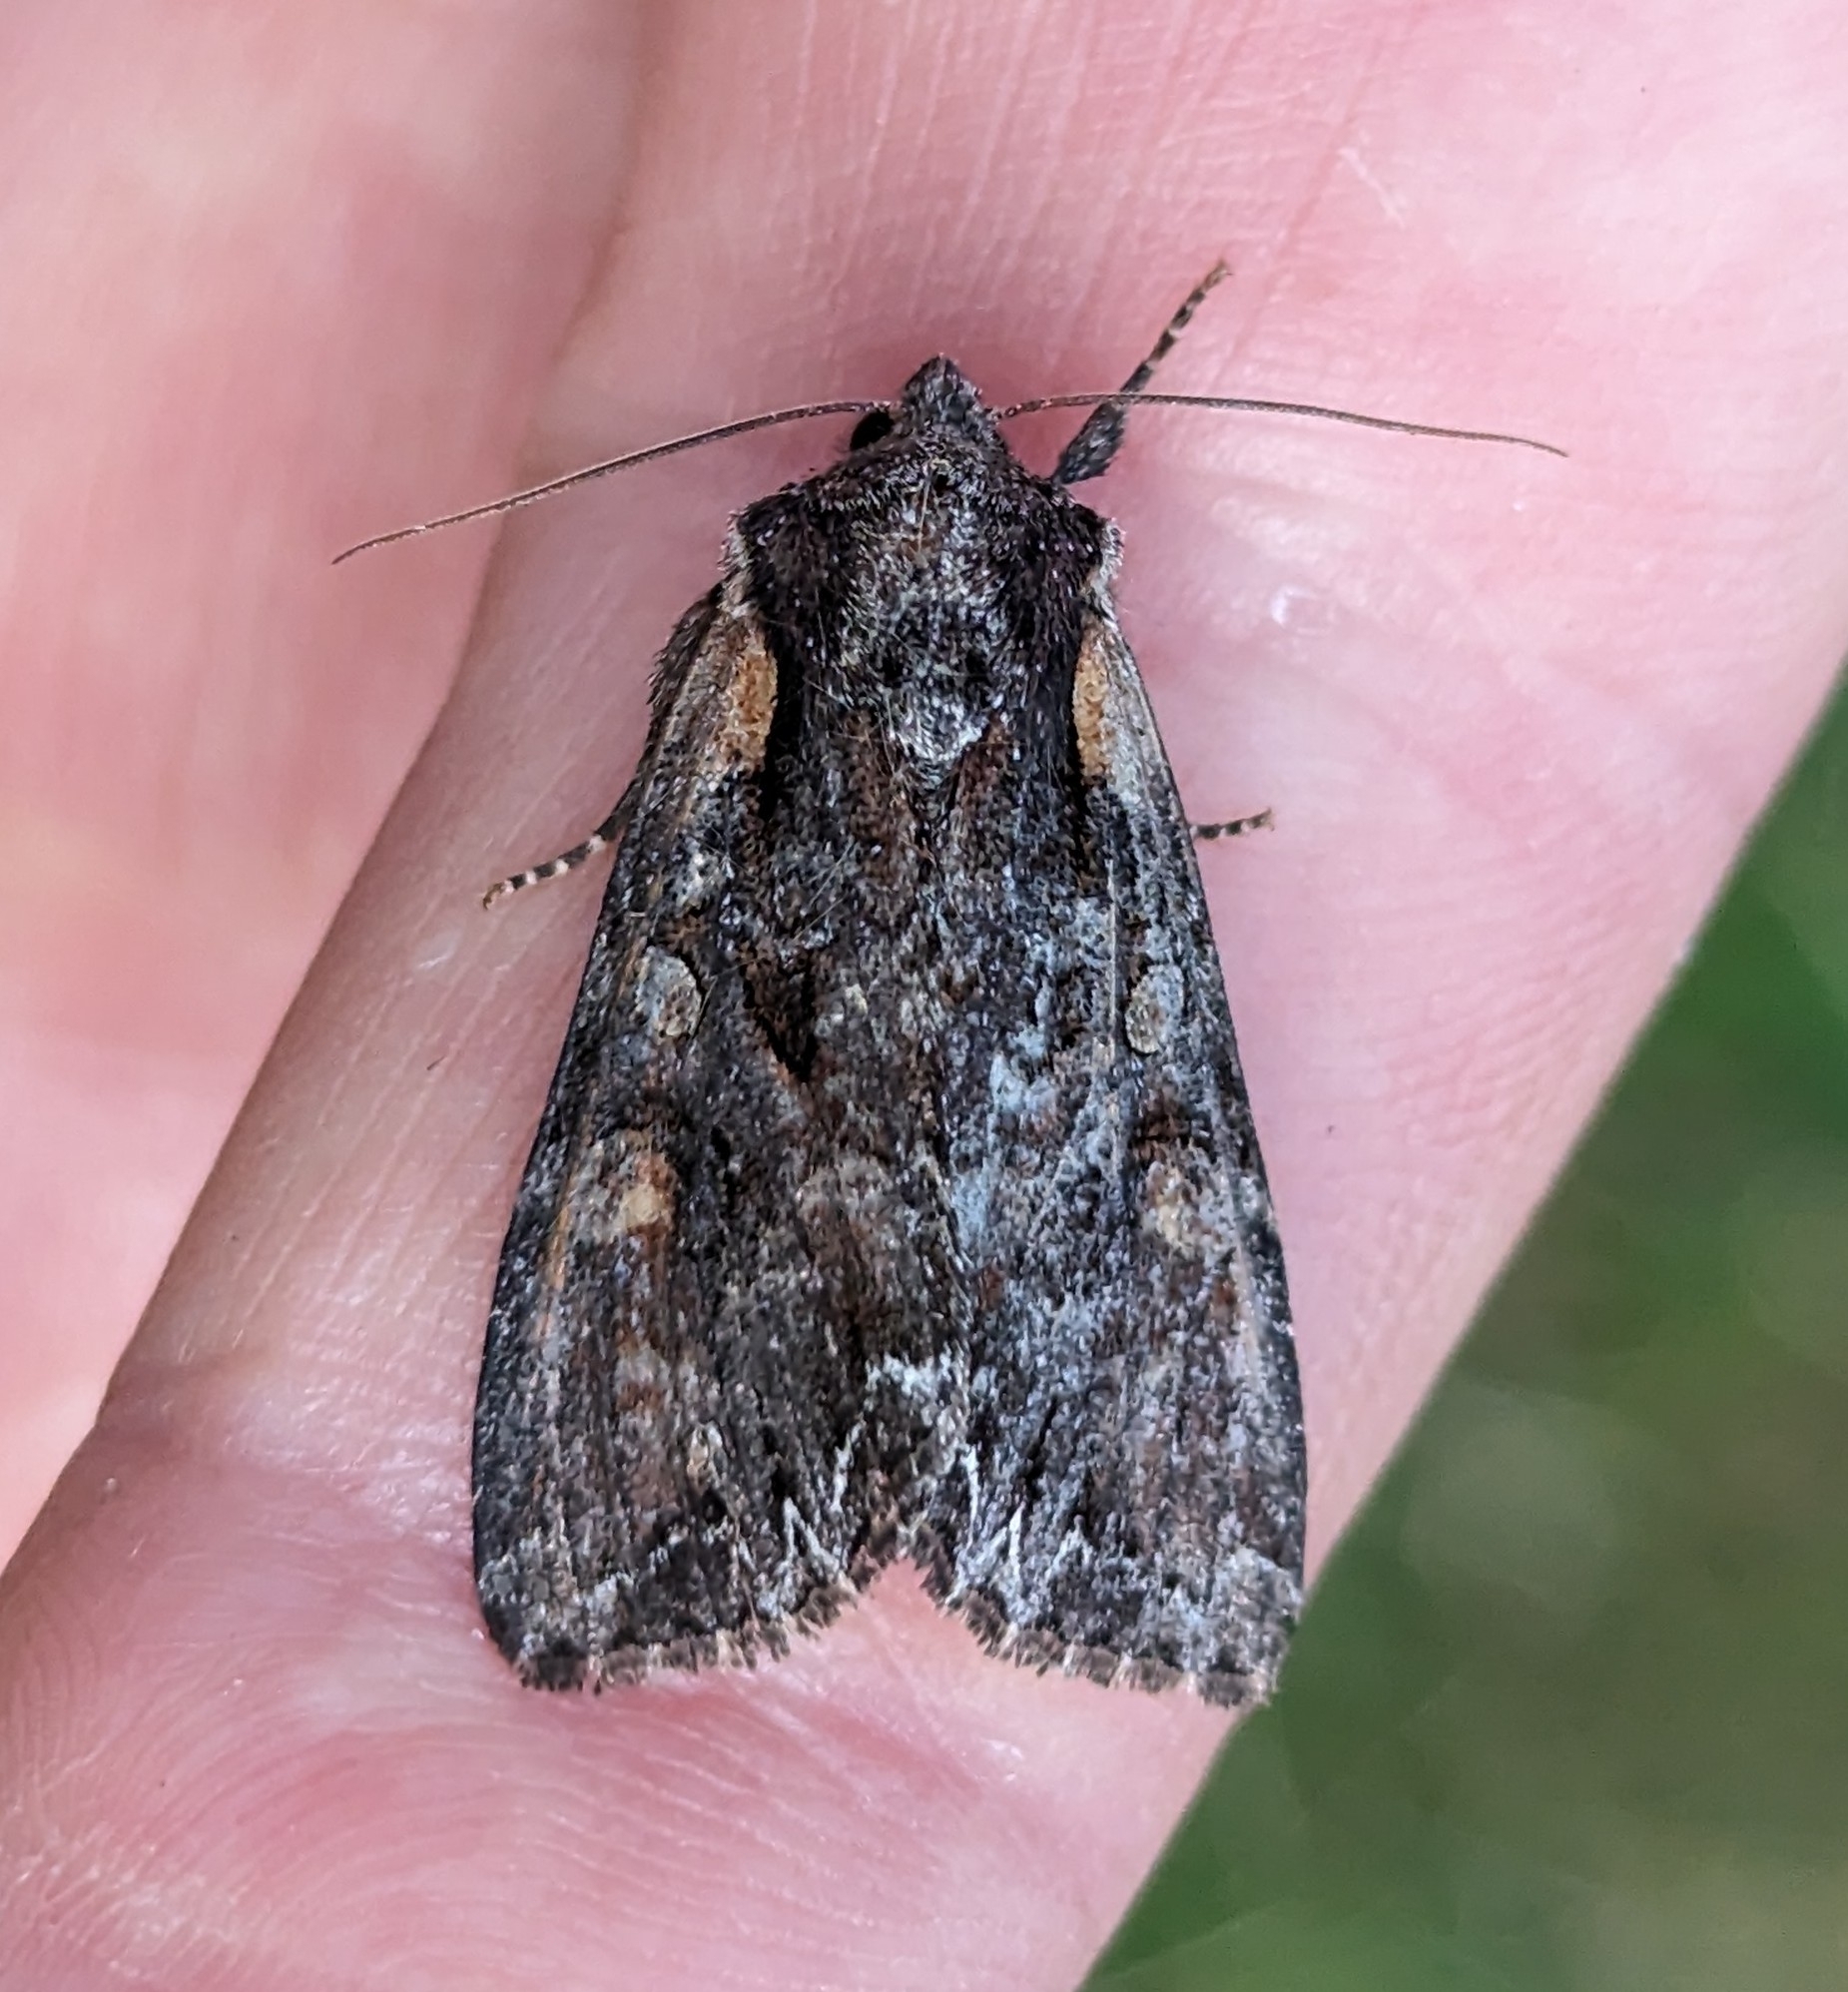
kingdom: Animalia
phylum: Arthropoda
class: Insecta
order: Lepidoptera
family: Noctuidae
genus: Lacanobia
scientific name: Lacanobia nevadae
